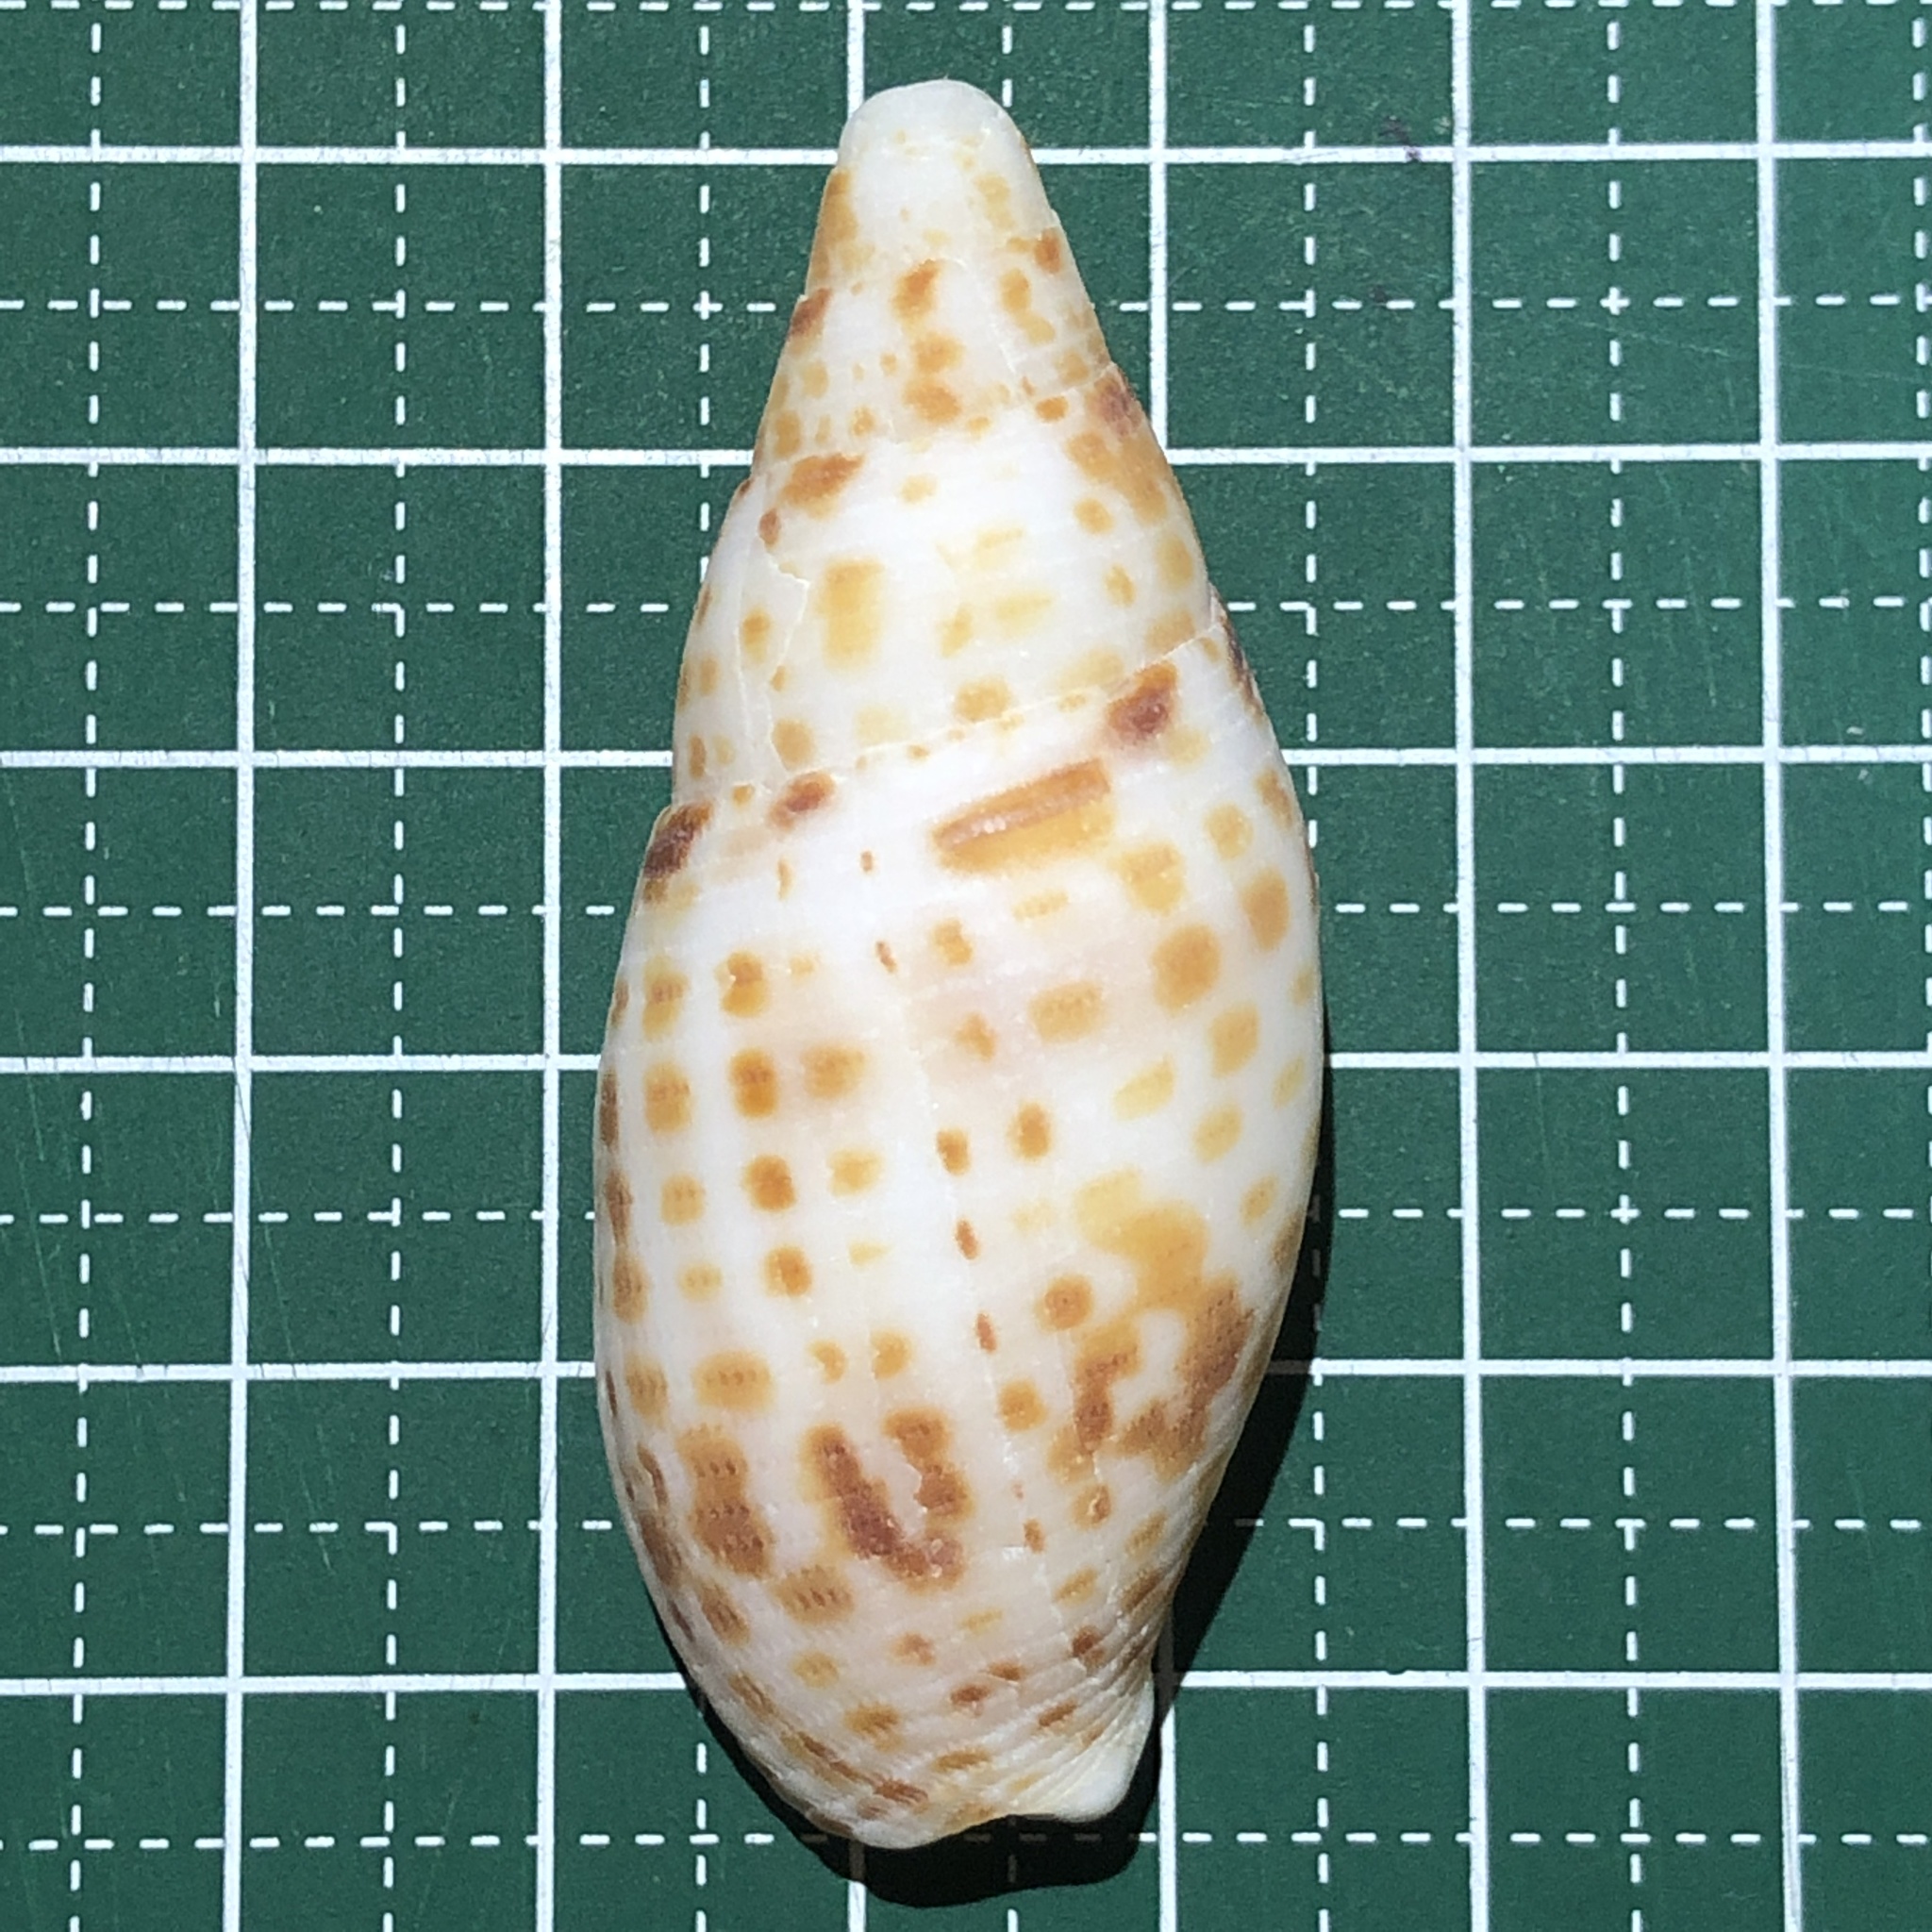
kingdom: Animalia
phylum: Mollusca
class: Gastropoda
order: Neogastropoda
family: Mitridae
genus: Quasimitra
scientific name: Quasimitra cardinalis
